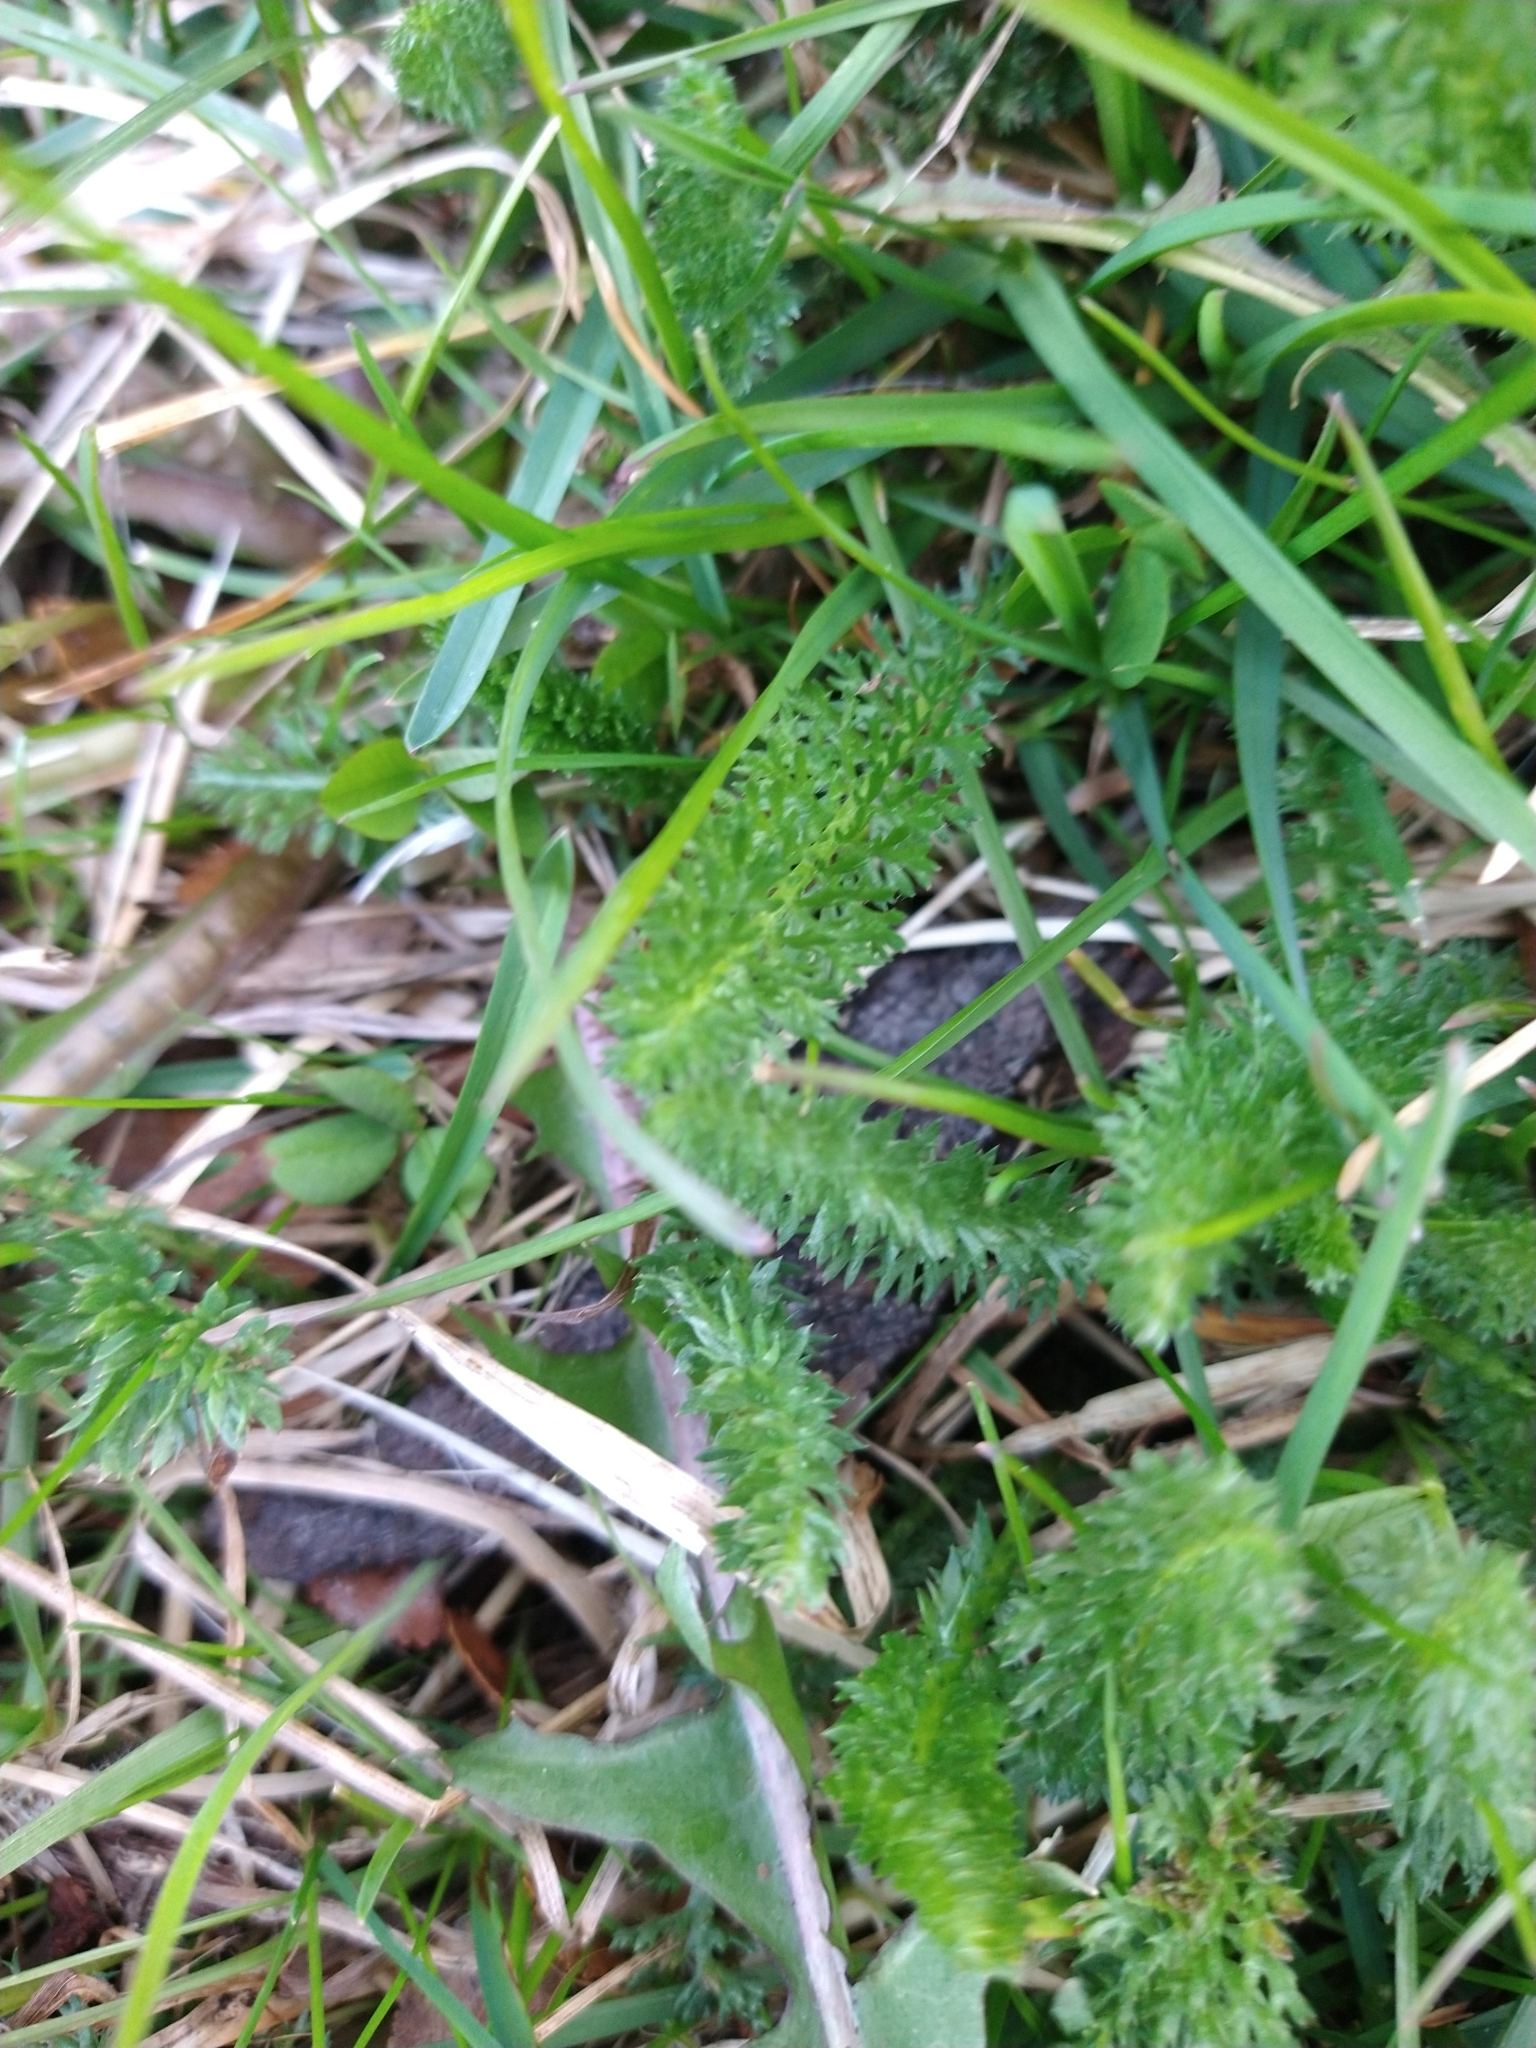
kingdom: Plantae
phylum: Tracheophyta
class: Magnoliopsida
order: Asterales
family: Asteraceae
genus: Achillea
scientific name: Achillea millefolium
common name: Yarrow
